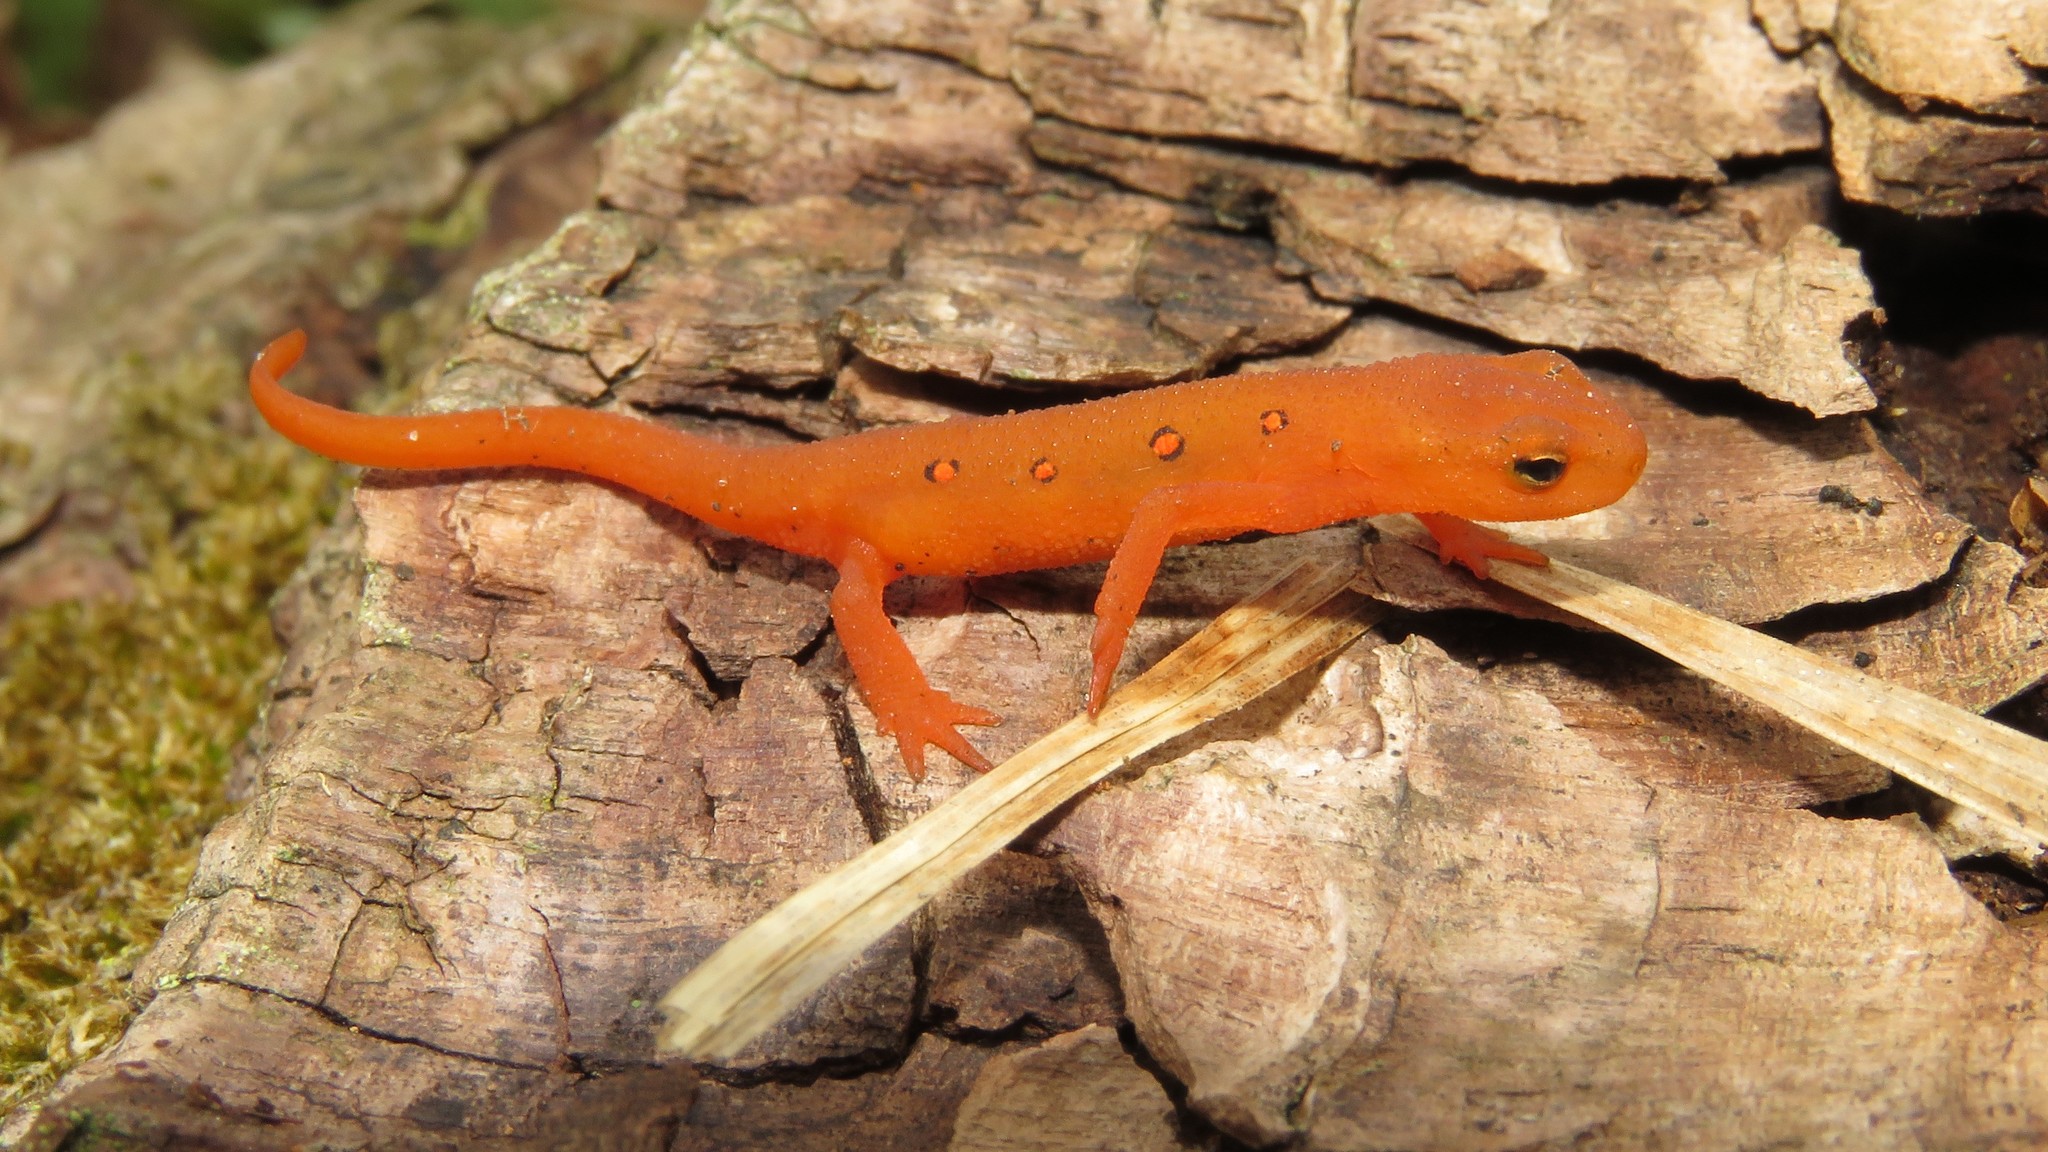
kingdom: Animalia
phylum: Chordata
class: Amphibia
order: Caudata
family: Salamandridae
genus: Notophthalmus
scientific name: Notophthalmus viridescens
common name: Eastern newt
